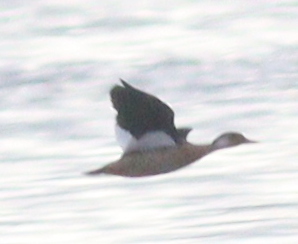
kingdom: Animalia
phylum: Chordata
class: Aves
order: Anseriformes
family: Anatidae
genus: Amazonetta
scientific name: Amazonetta brasiliensis
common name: Brazilian teal
